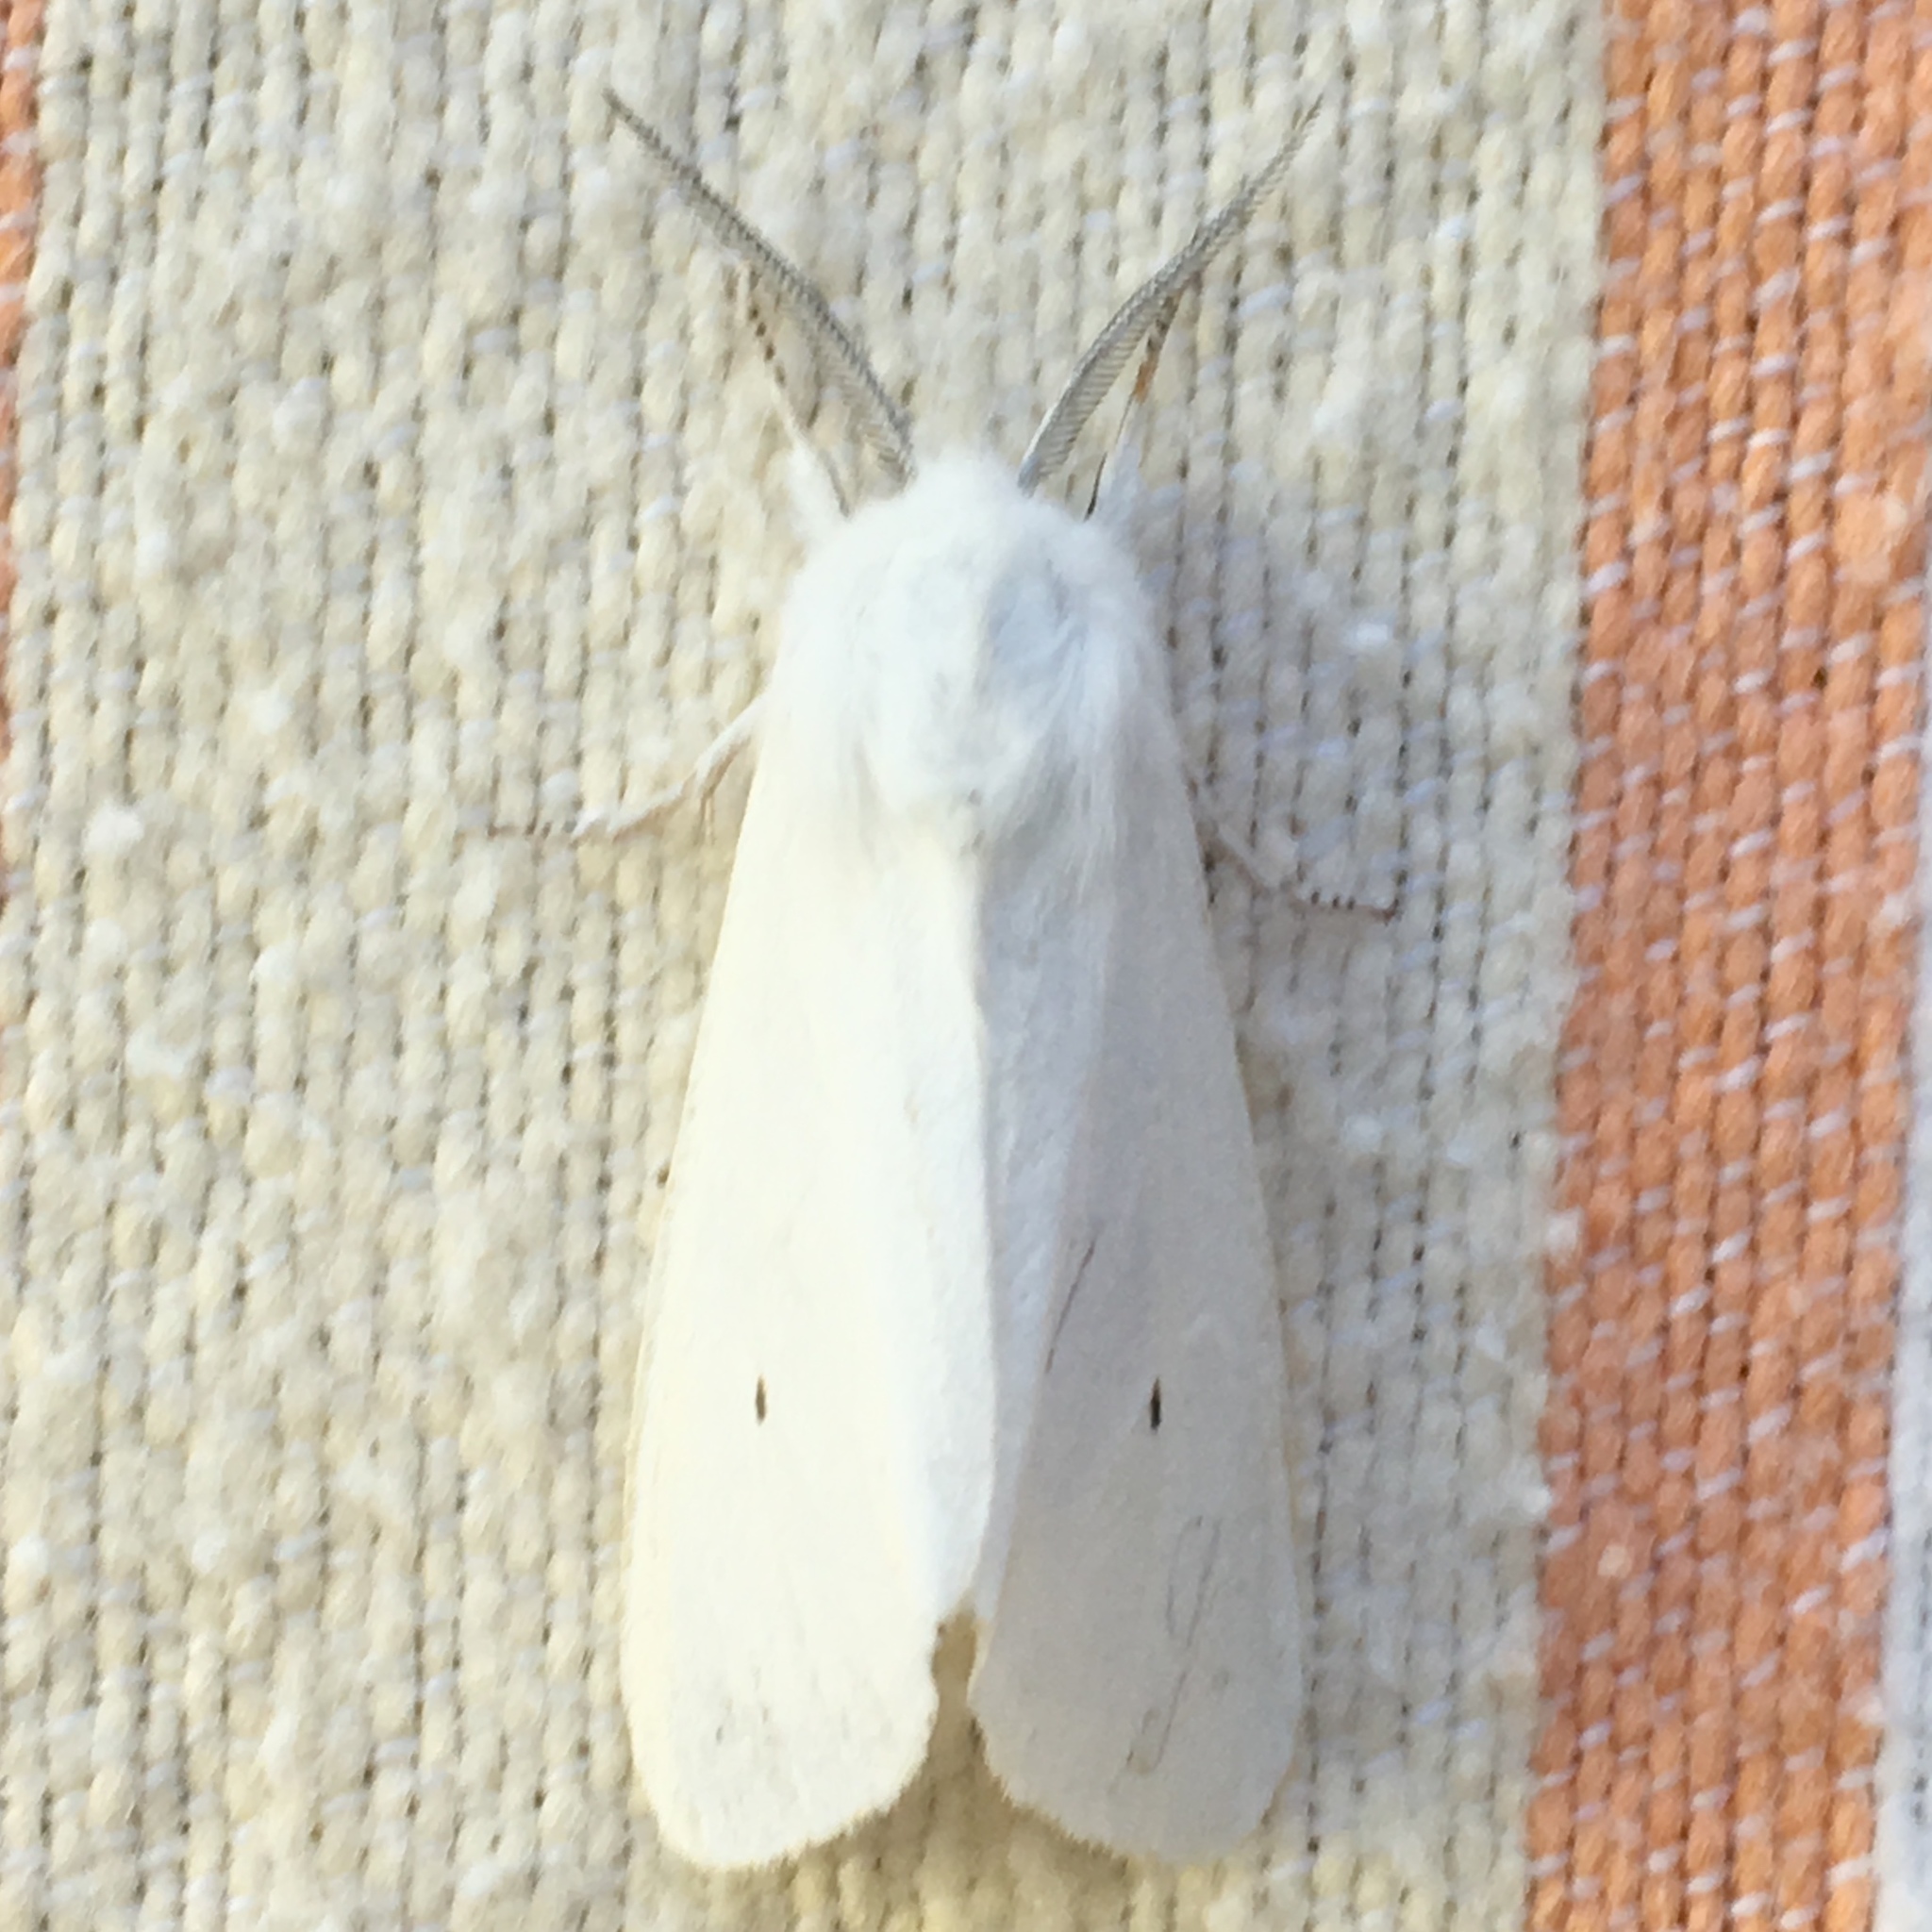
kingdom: Animalia
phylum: Arthropoda
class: Insecta
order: Lepidoptera
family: Erebidae
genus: Spilosoma
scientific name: Spilosoma virginica
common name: Virginia tiger moth
